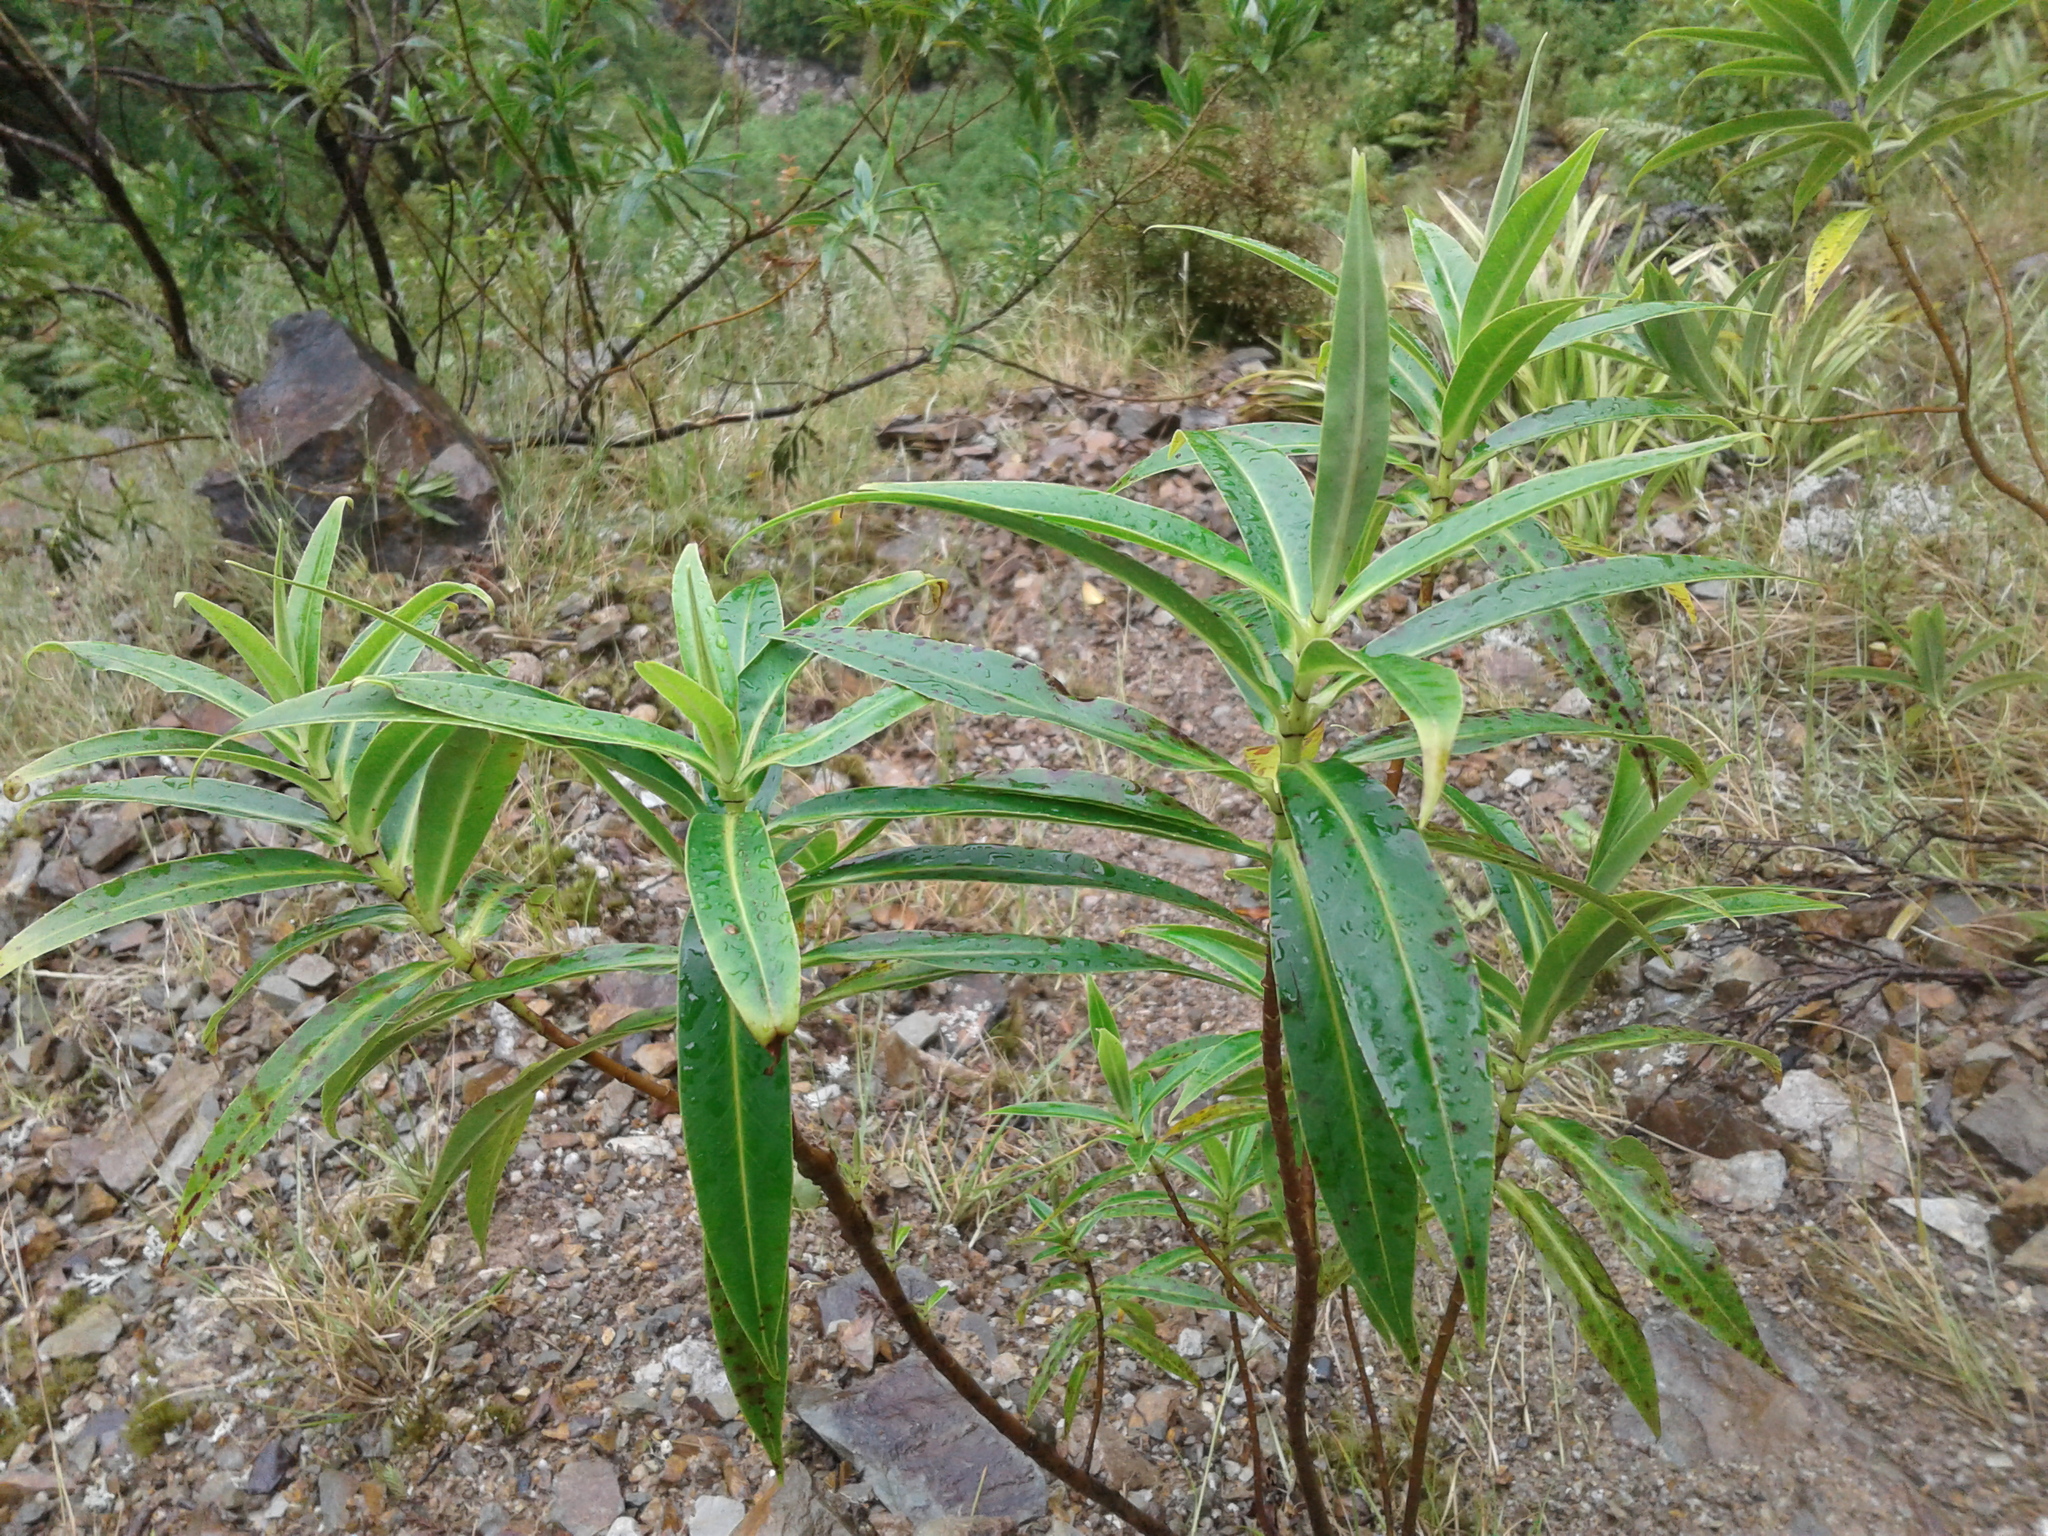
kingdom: Plantae
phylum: Tracheophyta
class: Magnoliopsida
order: Lamiales
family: Plantaginaceae
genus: Veronica
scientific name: Veronica salicifolia
